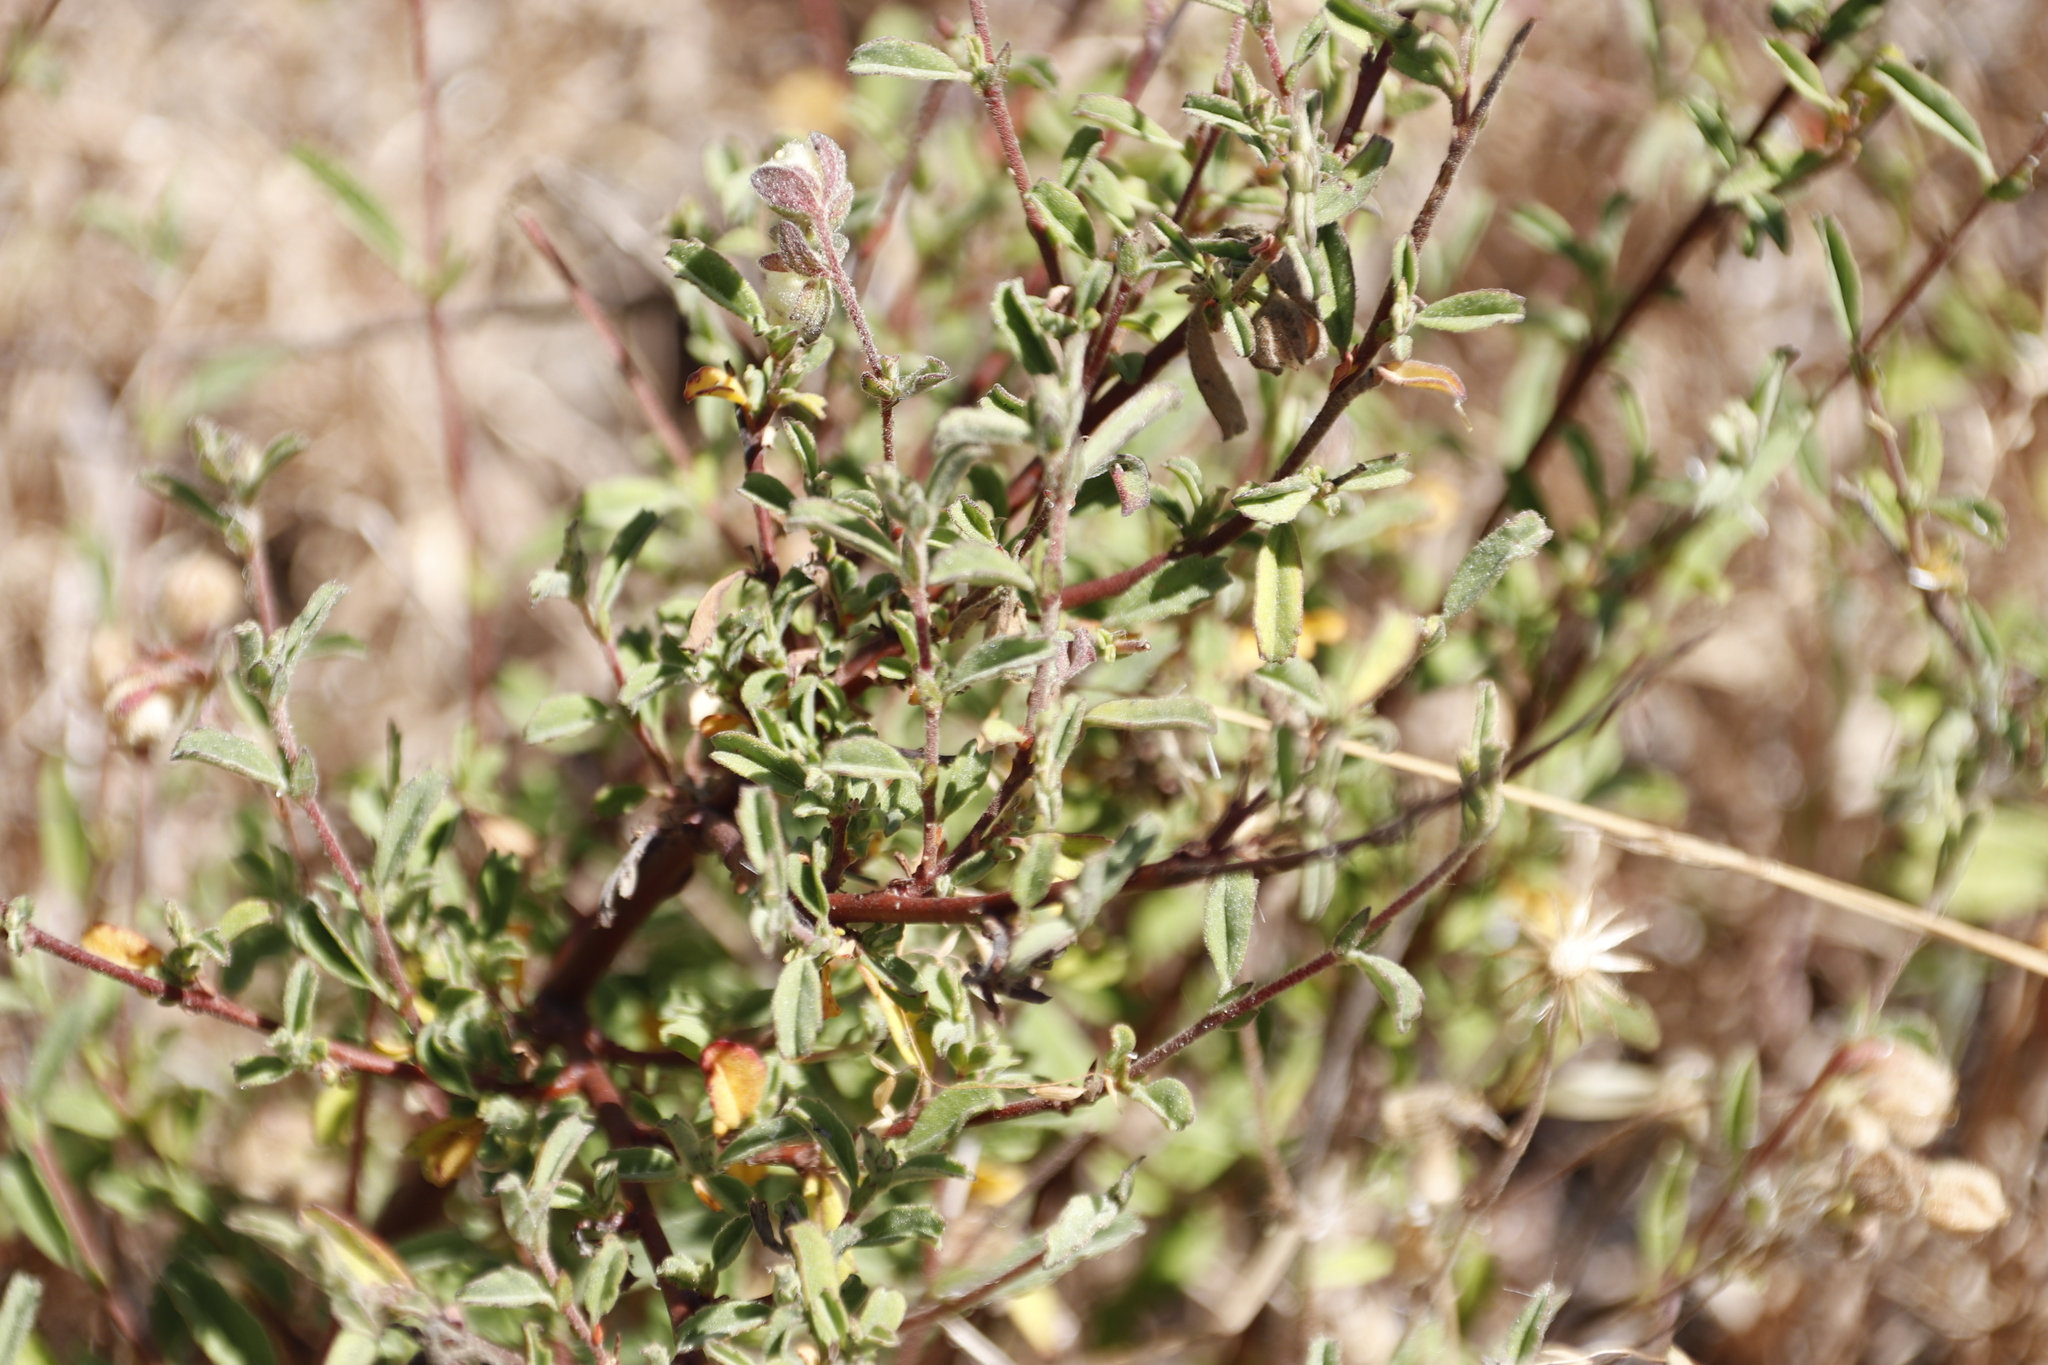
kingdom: Plantae
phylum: Tracheophyta
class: Magnoliopsida
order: Malvales
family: Malvaceae
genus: Hermannia
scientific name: Hermannia hyssopifolia
